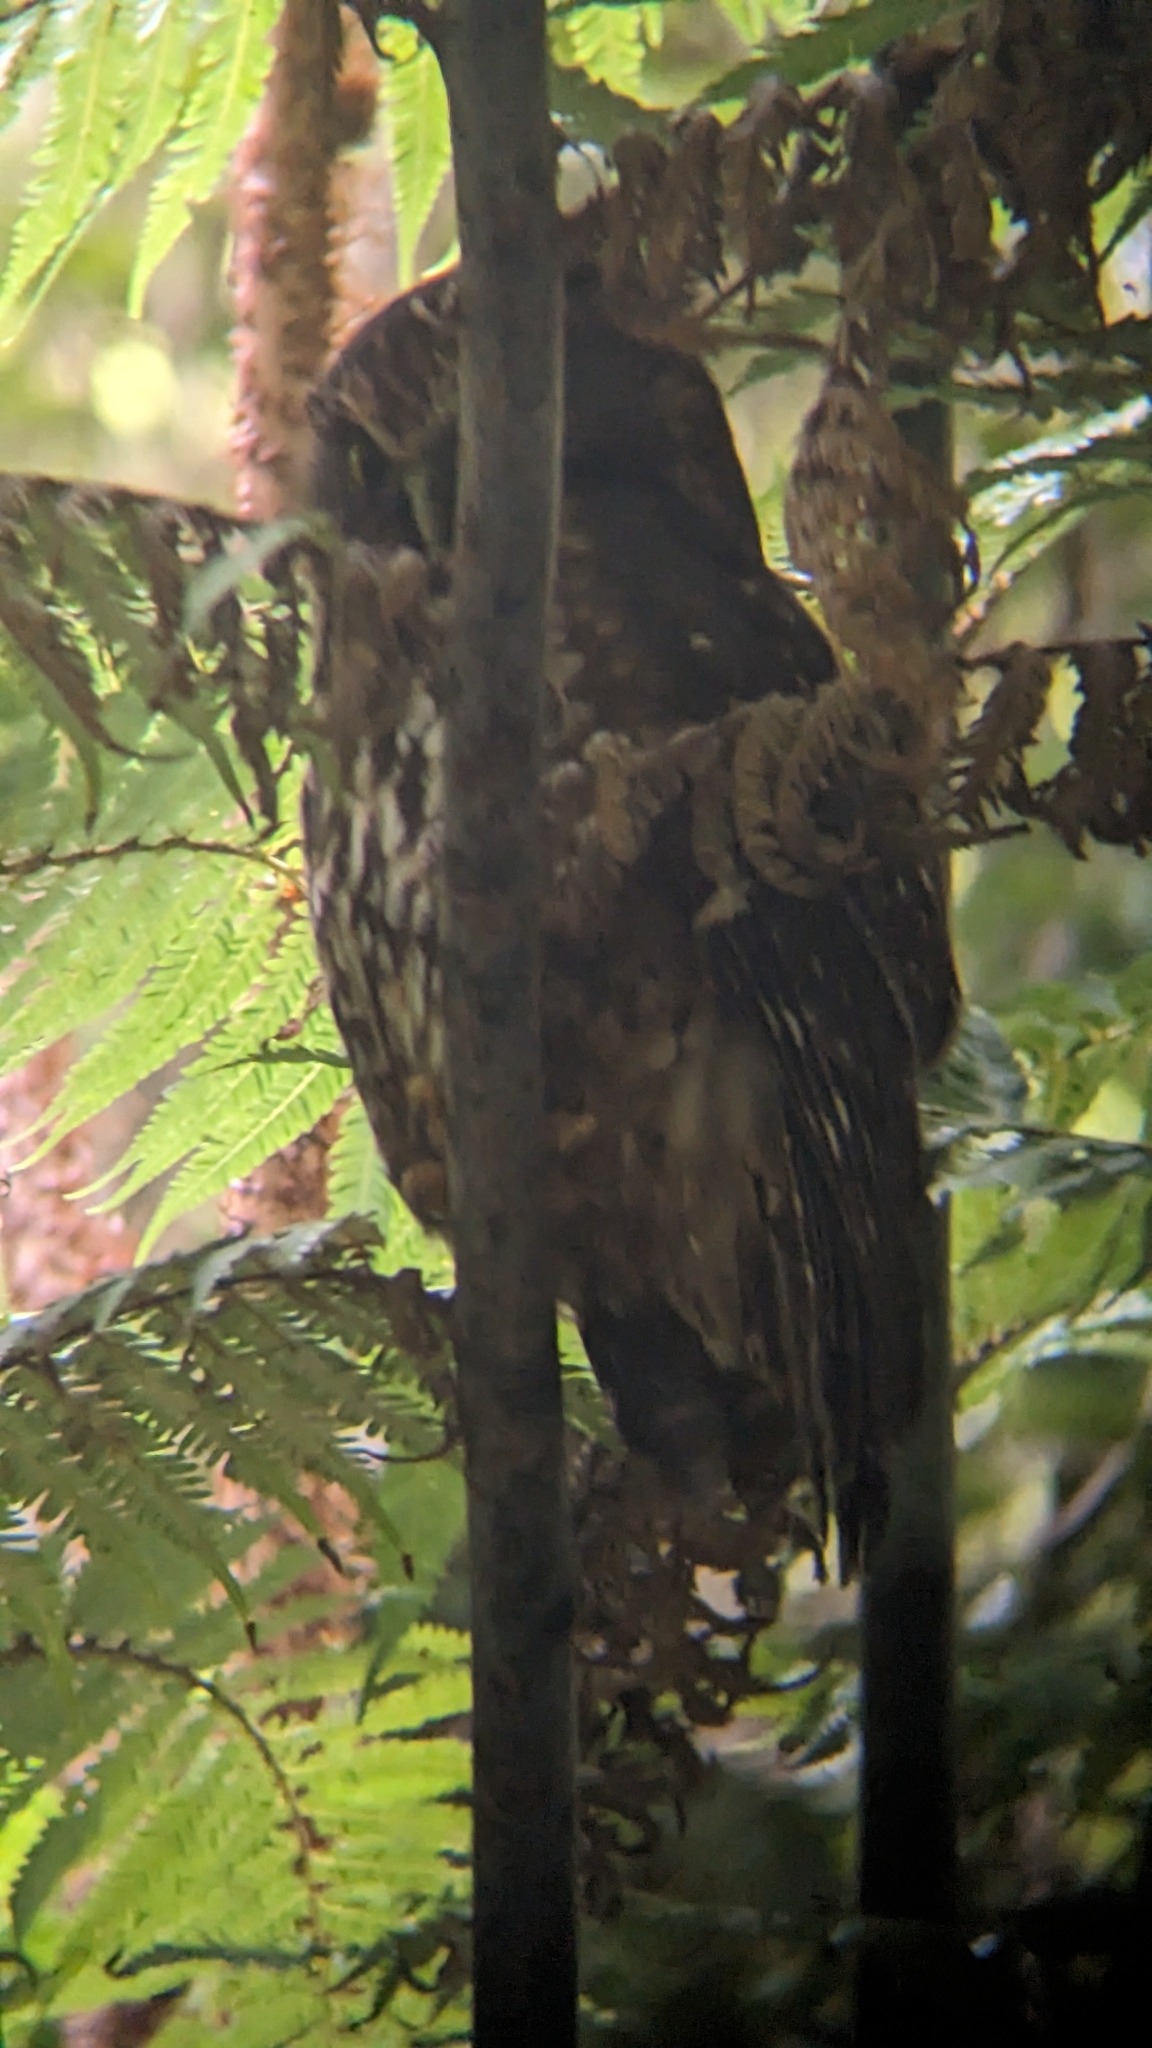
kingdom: Animalia
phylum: Chordata
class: Aves
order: Strigiformes
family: Strigidae
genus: Ninox
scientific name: Ninox novaeseelandiae
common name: Morepork
